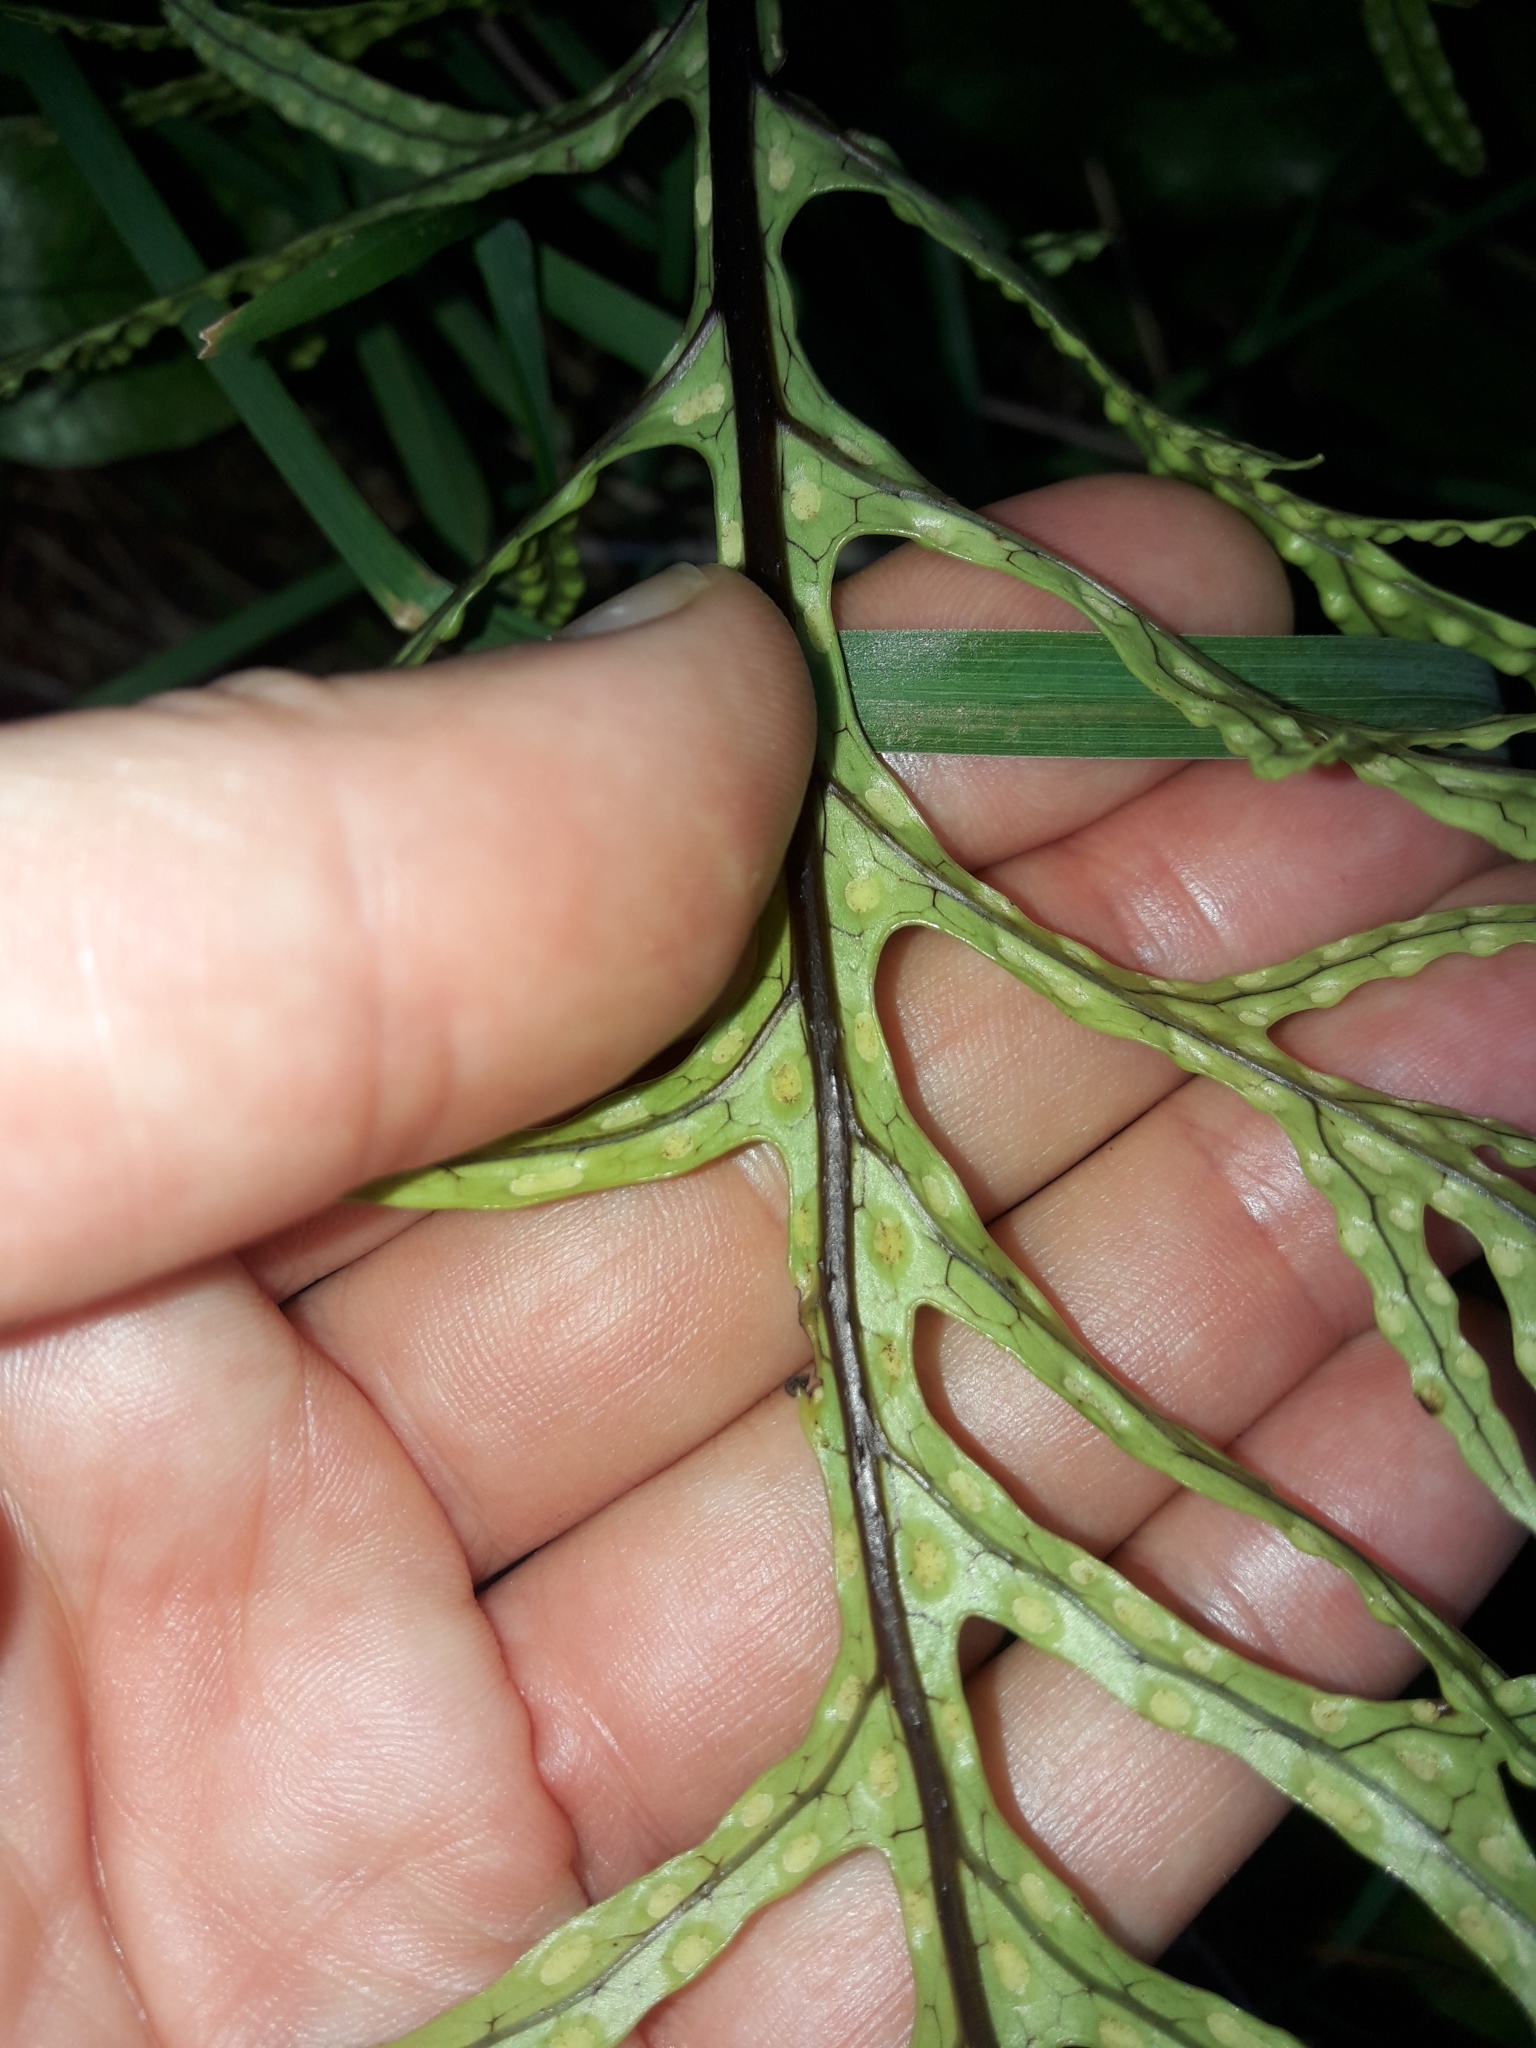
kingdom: Plantae
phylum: Tracheophyta
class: Polypodiopsida
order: Polypodiales
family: Polypodiaceae
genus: Lecanopteris
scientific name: Lecanopteris pustulata
